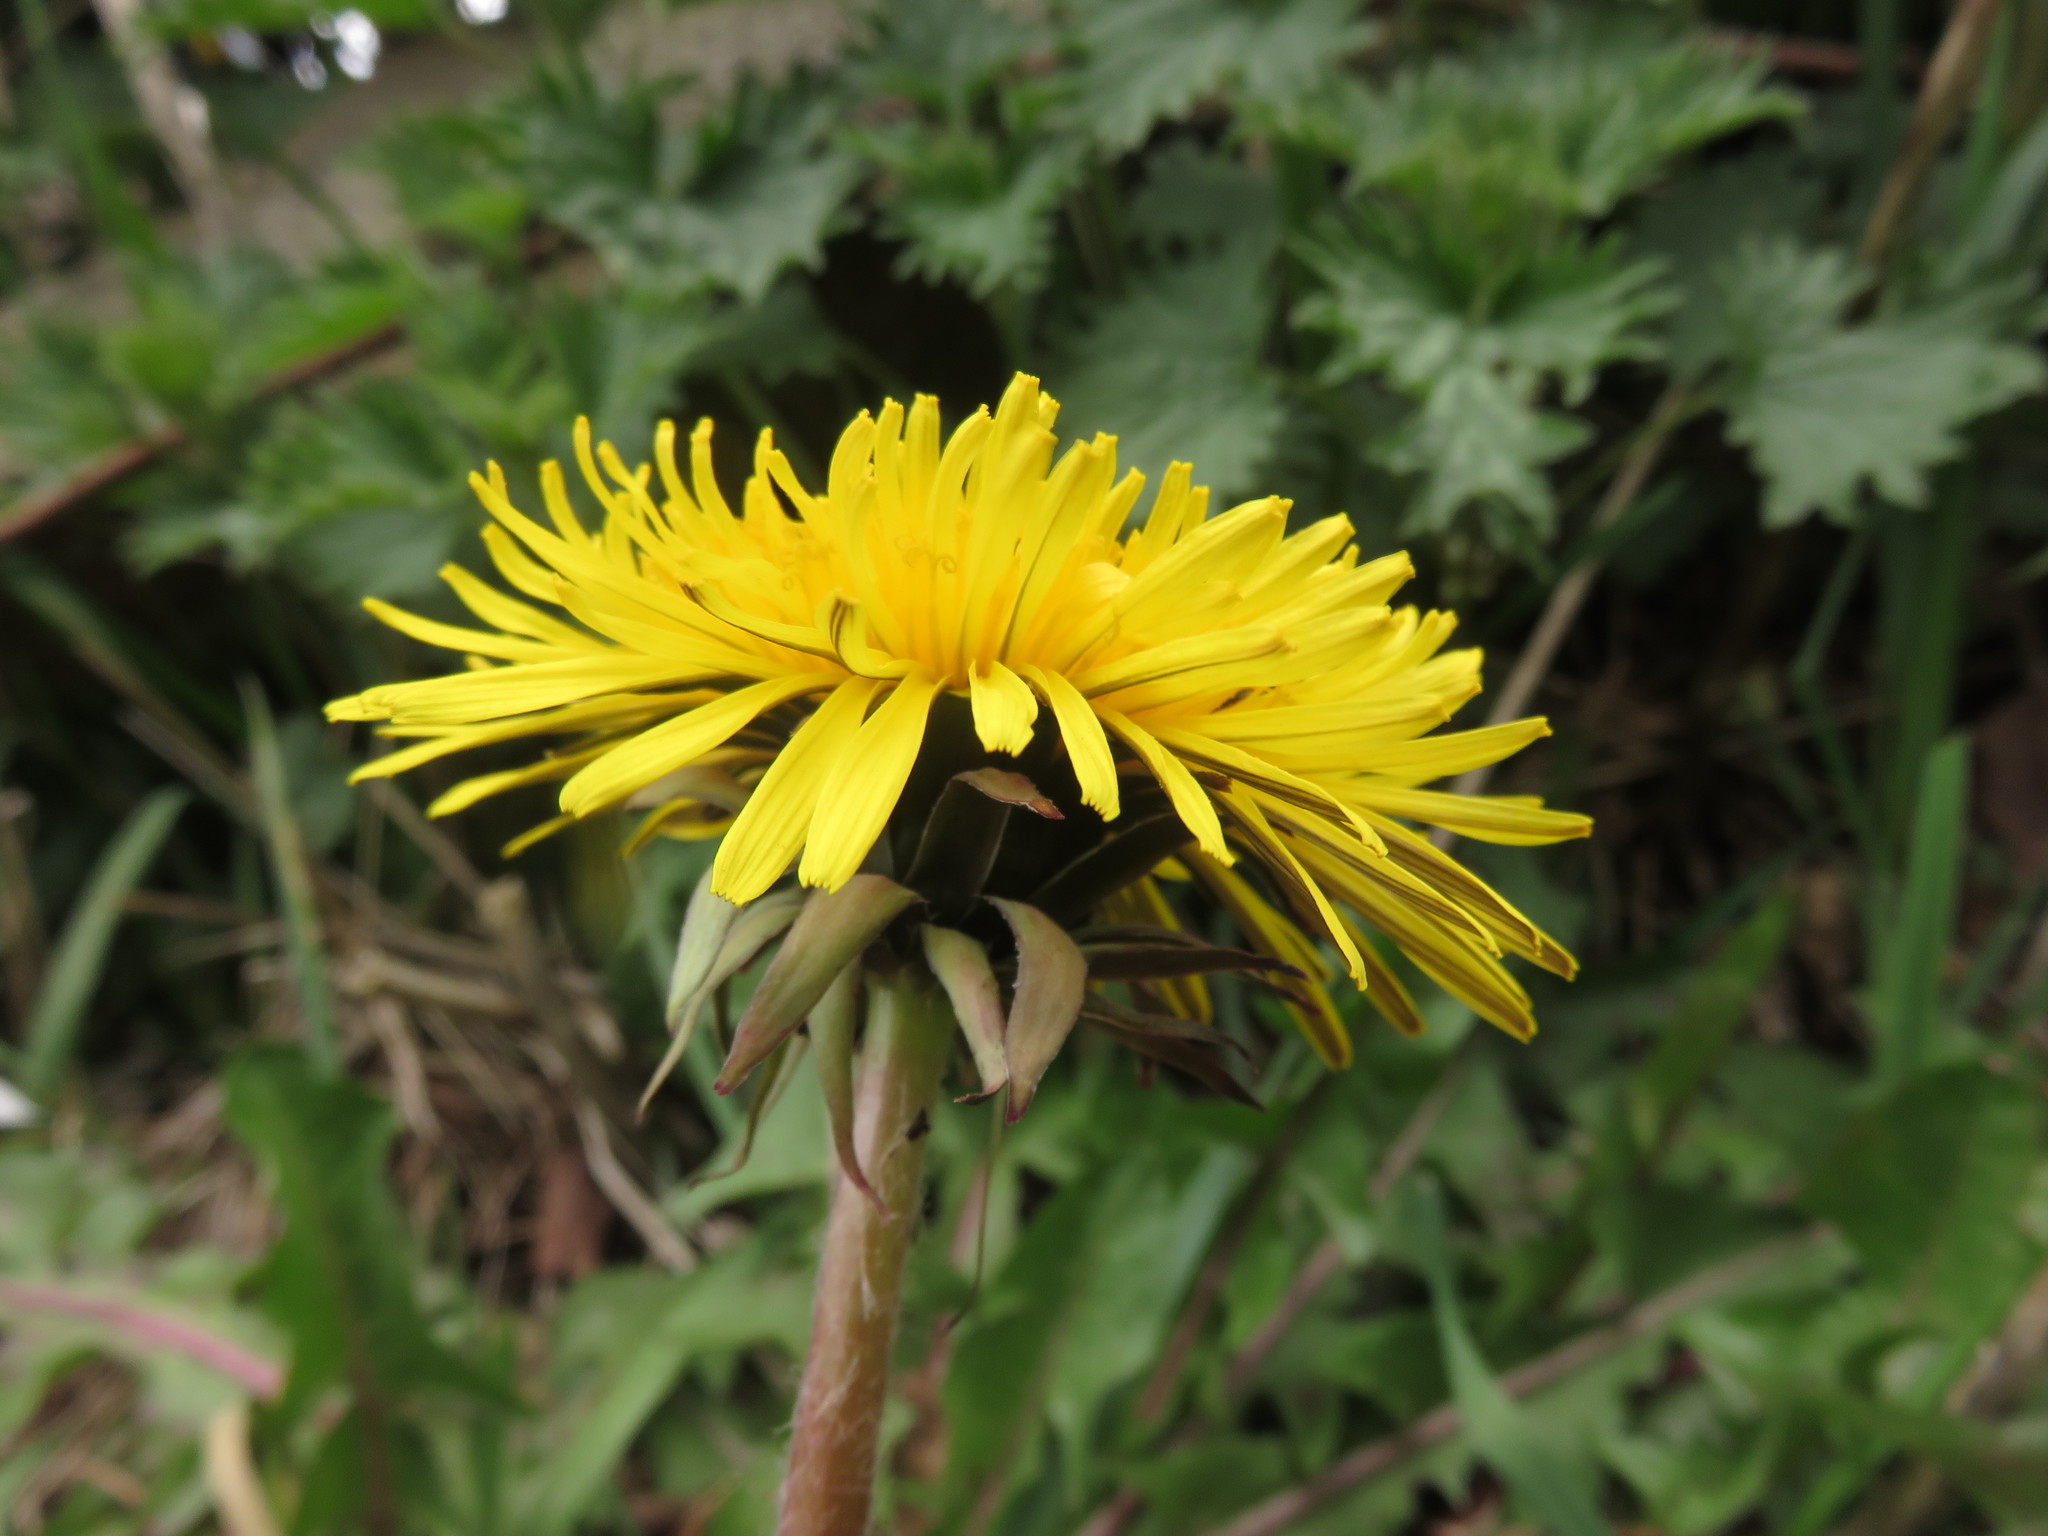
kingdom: Plantae
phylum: Tracheophyta
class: Magnoliopsida
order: Asterales
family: Asteraceae
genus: Taraxacum
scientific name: Taraxacum officinale
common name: Common dandelion
